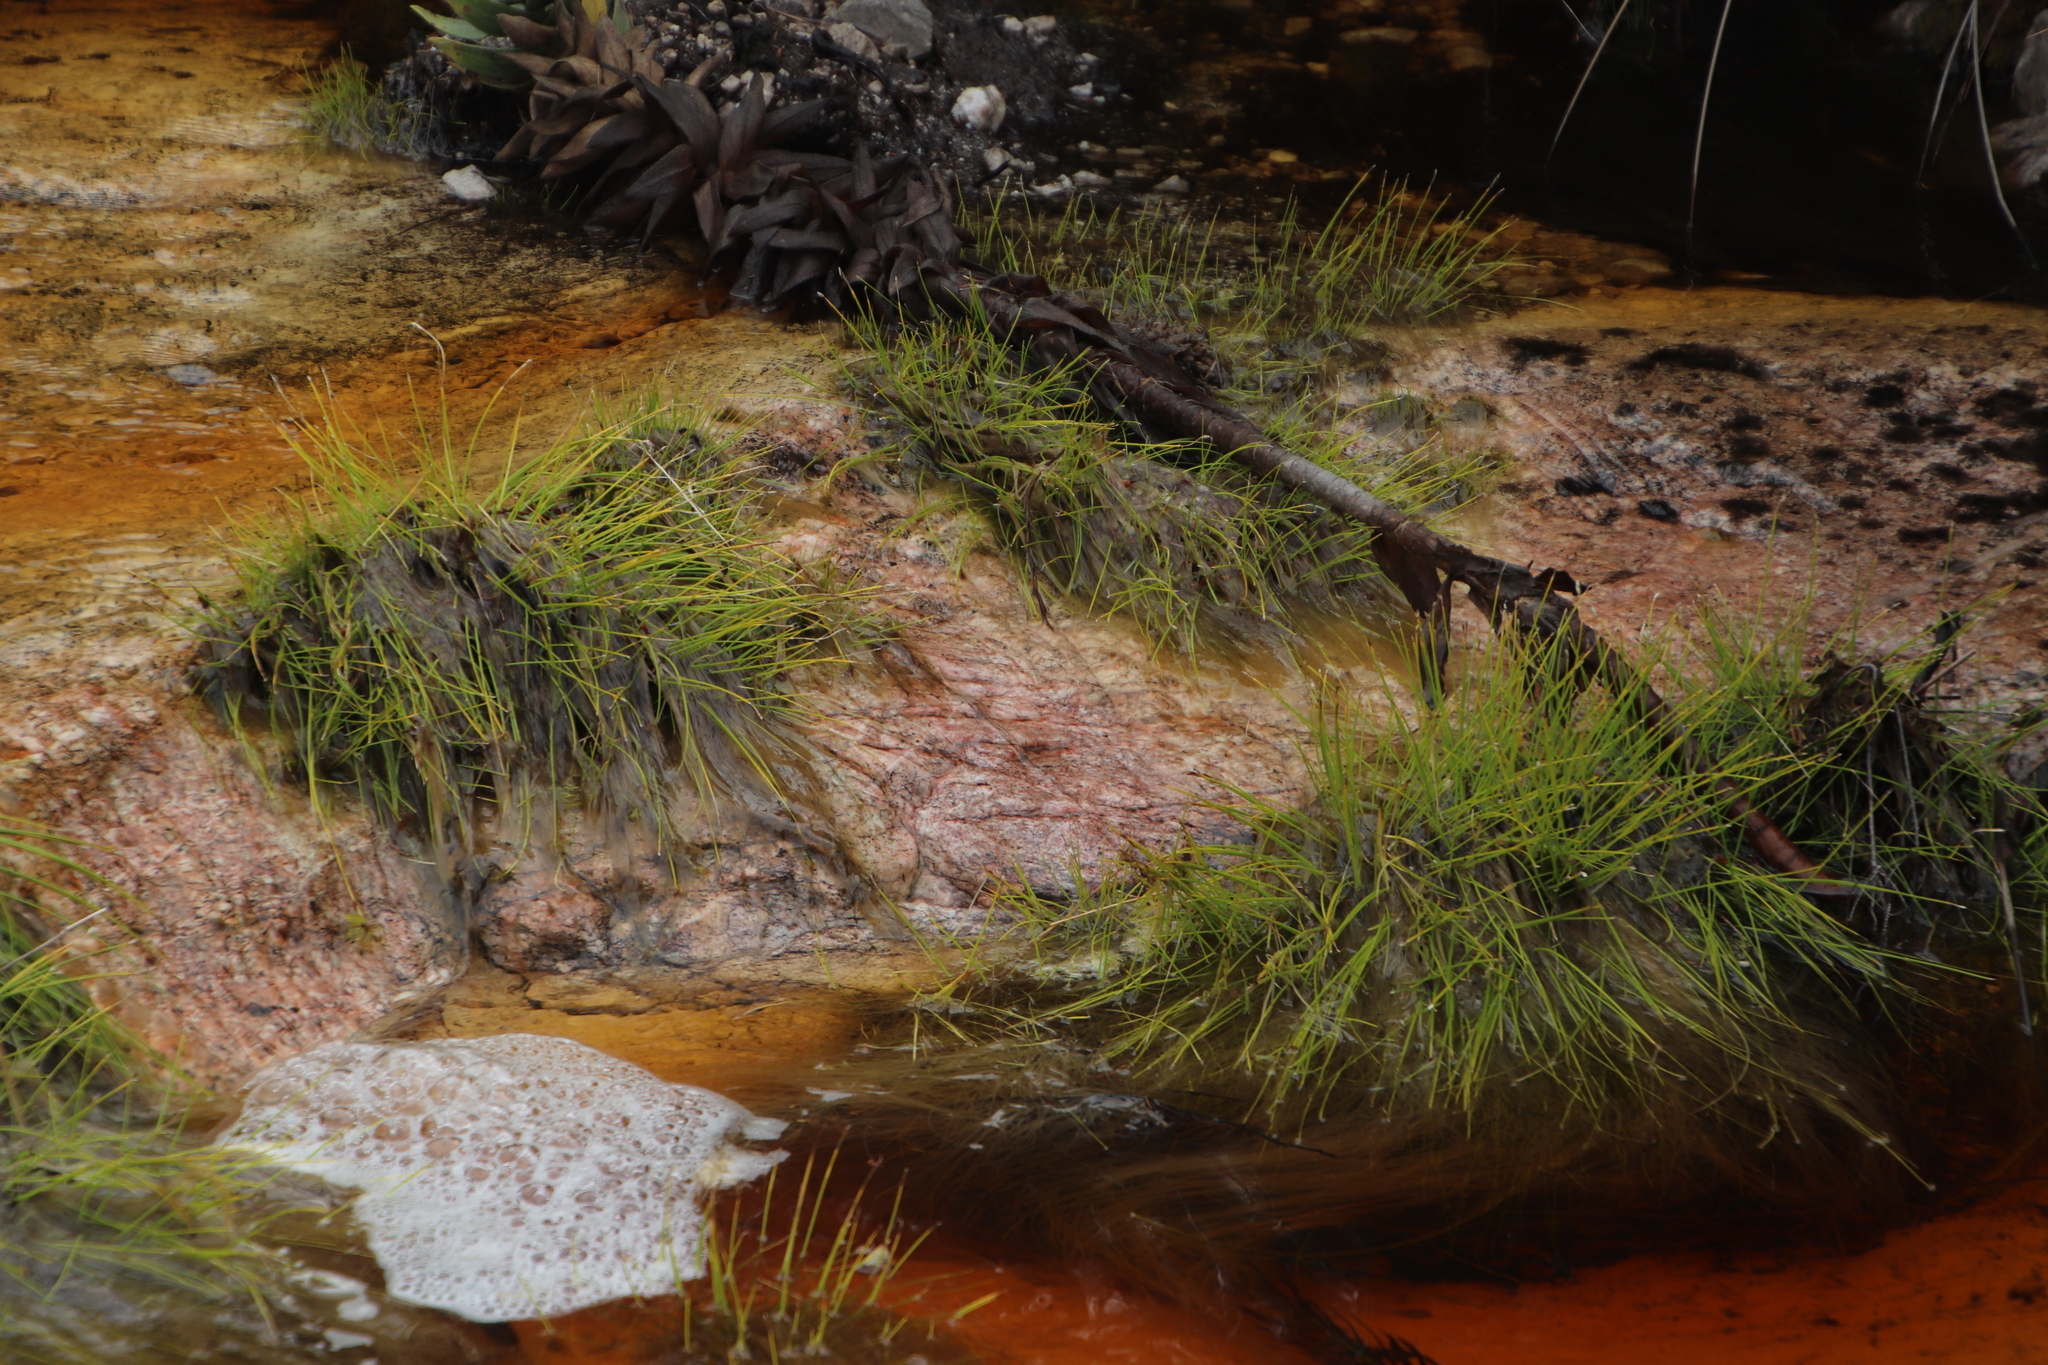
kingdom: Plantae
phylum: Tracheophyta
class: Liliopsida
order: Poales
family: Cyperaceae
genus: Isolepis
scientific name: Isolepis digitata
